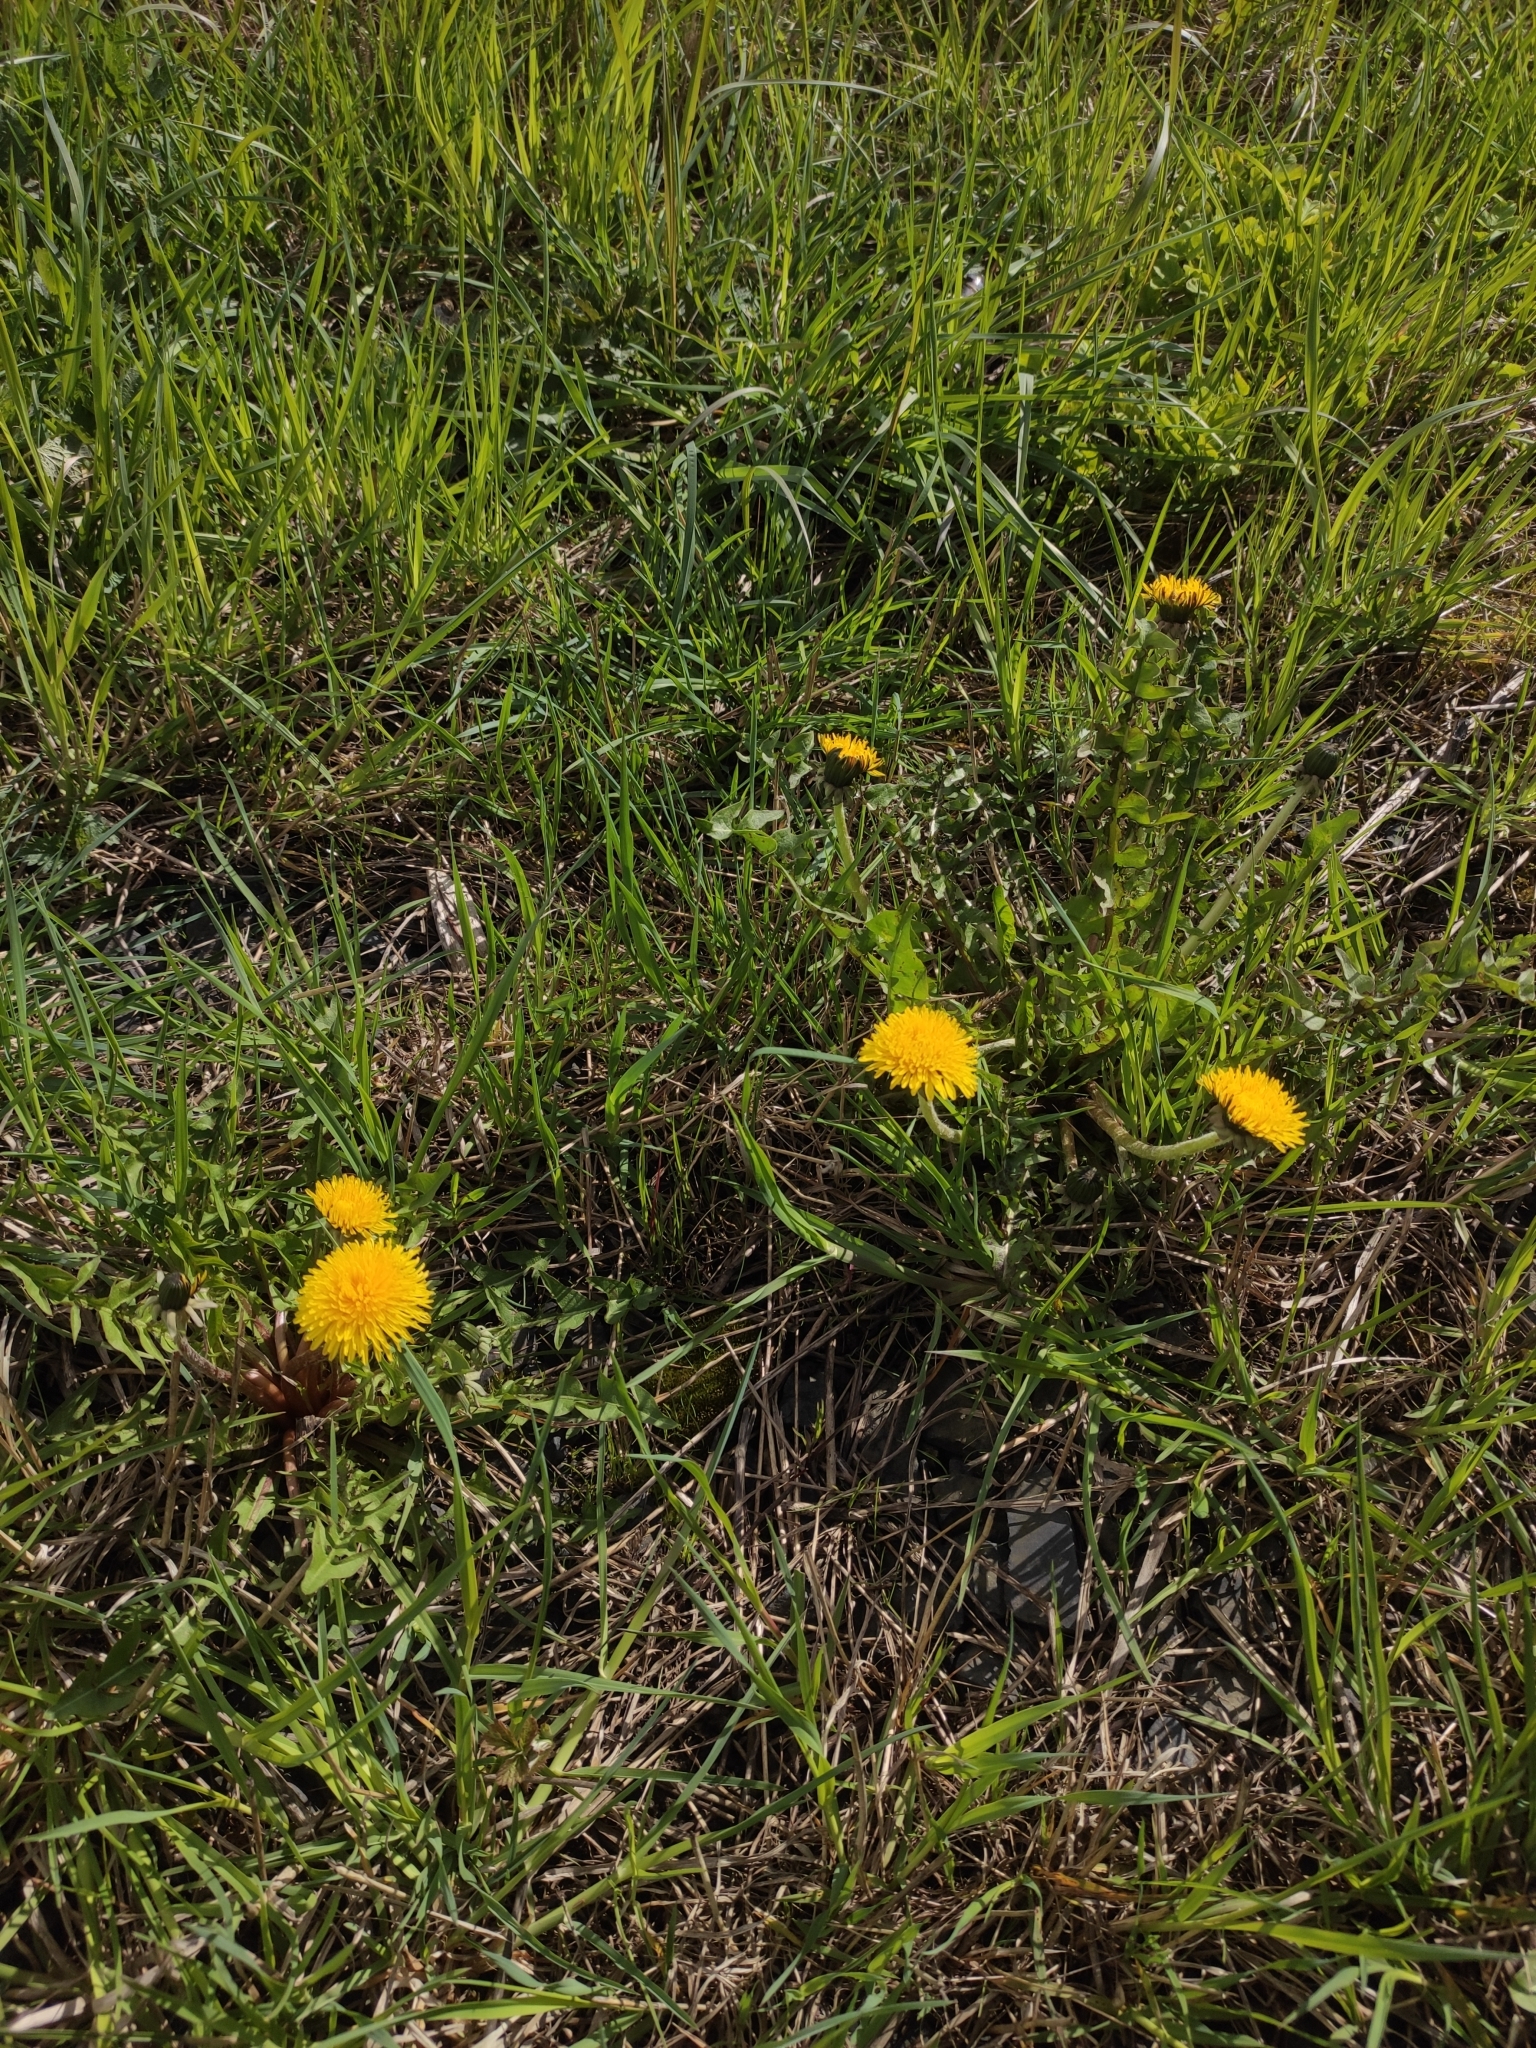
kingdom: Plantae
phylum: Tracheophyta
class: Magnoliopsida
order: Asterales
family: Asteraceae
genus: Taraxacum
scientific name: Taraxacum officinale
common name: Common dandelion
